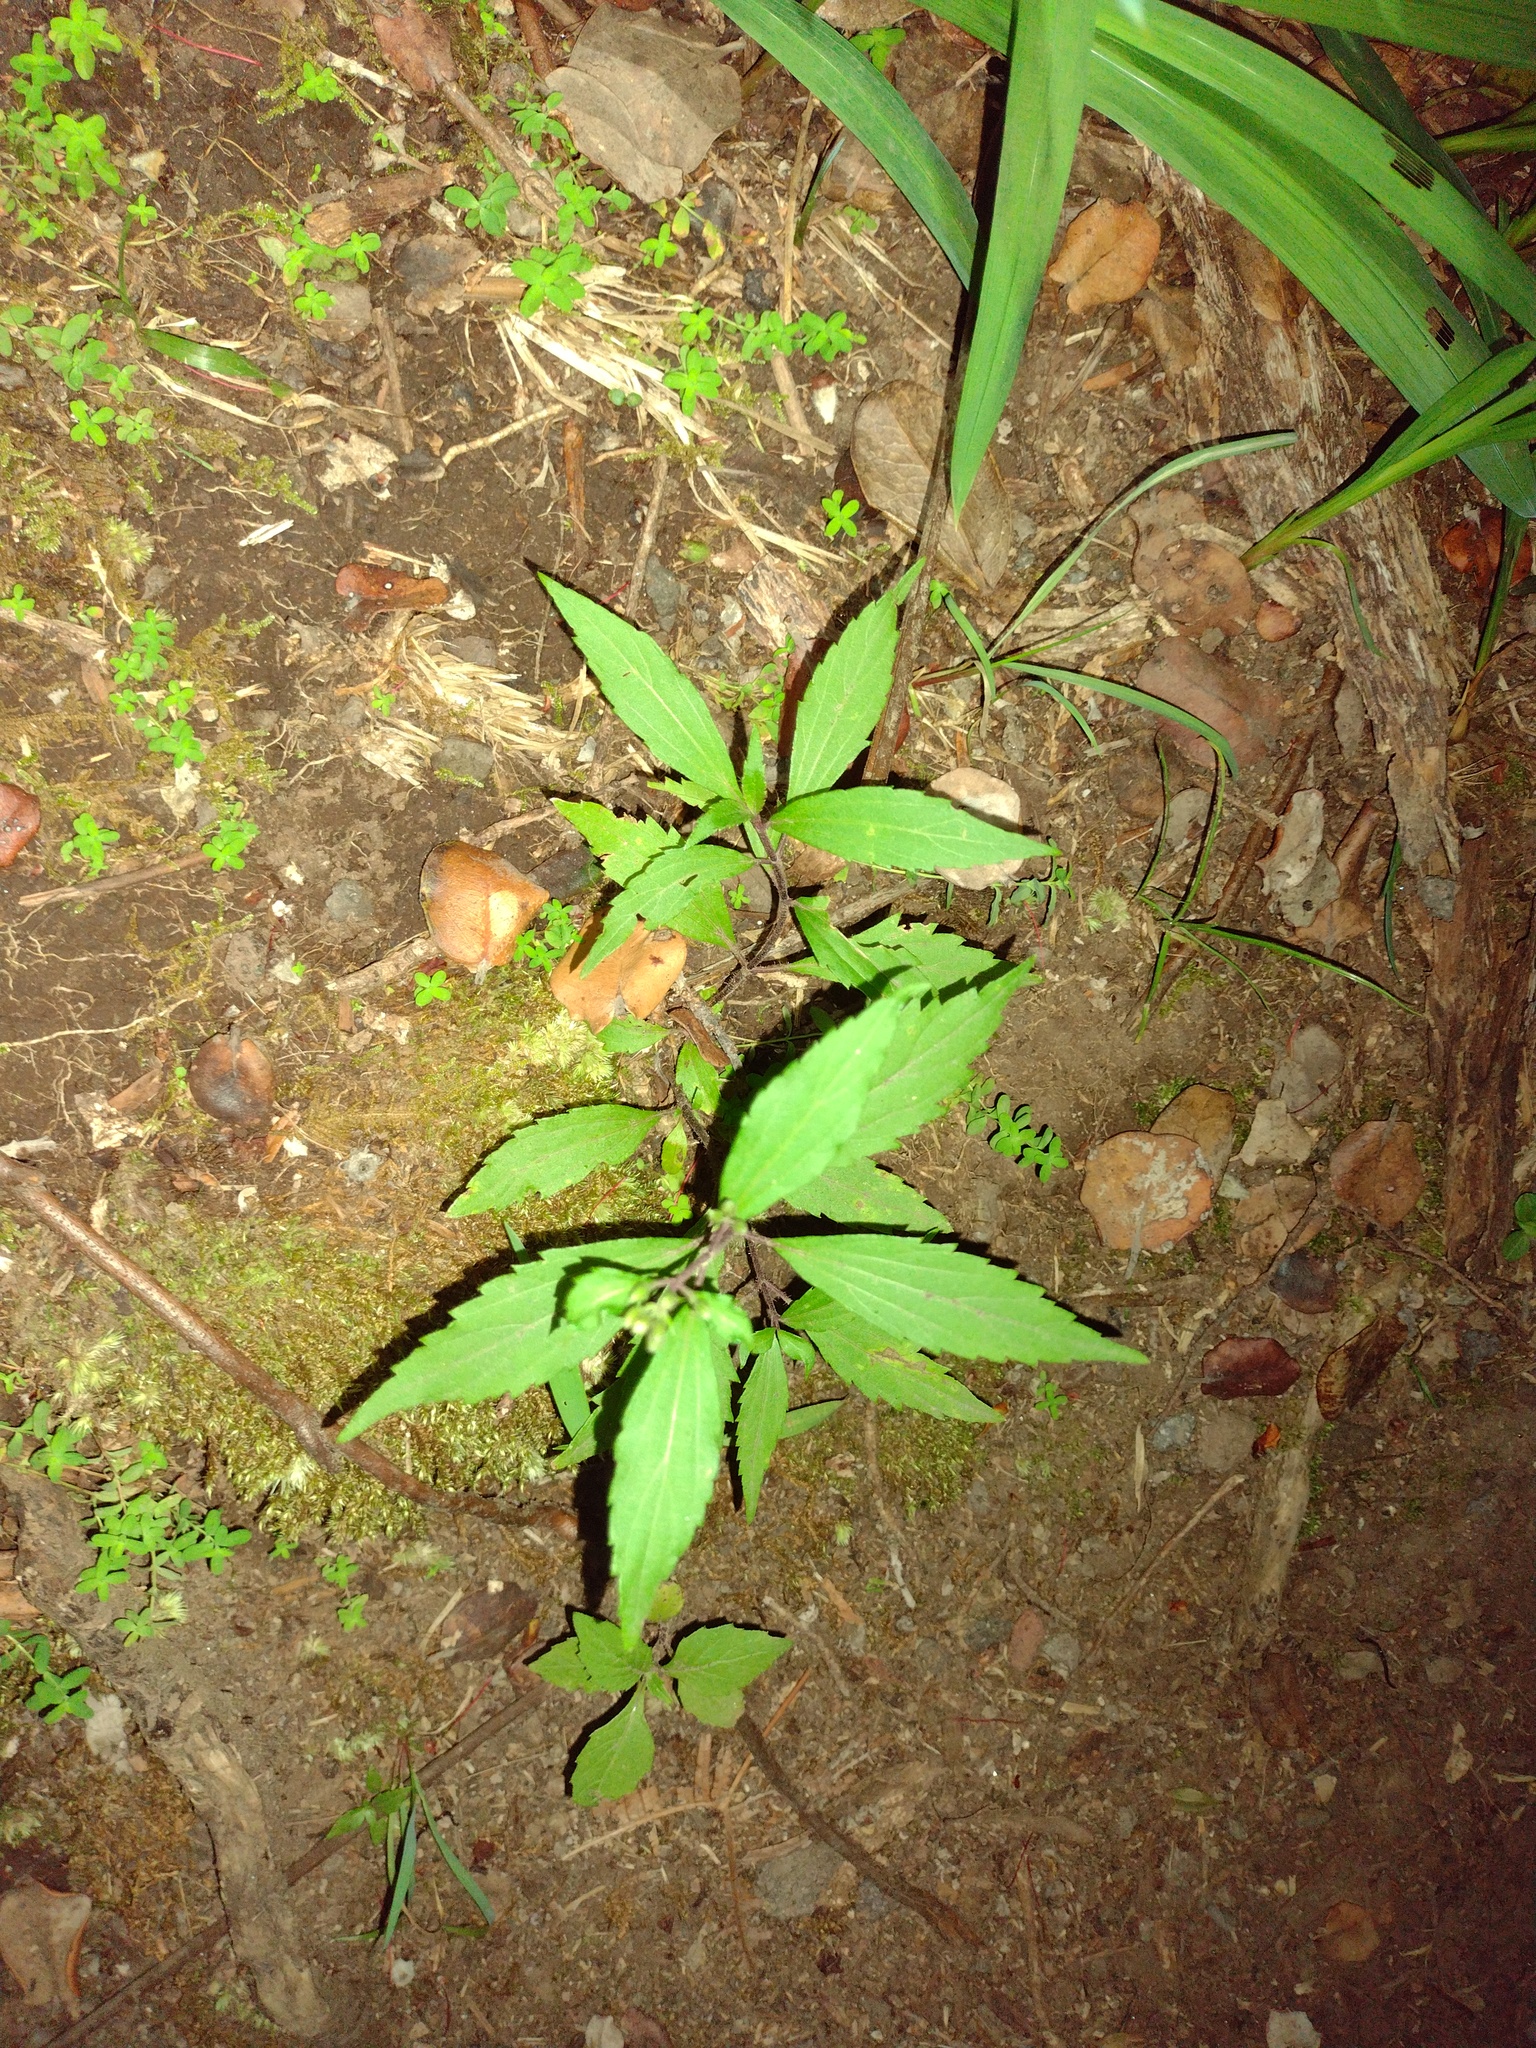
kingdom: Plantae
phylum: Tracheophyta
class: Magnoliopsida
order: Asterales
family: Asteraceae
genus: Ageratina
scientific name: Ageratina riparia
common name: Creeping croftonweed
